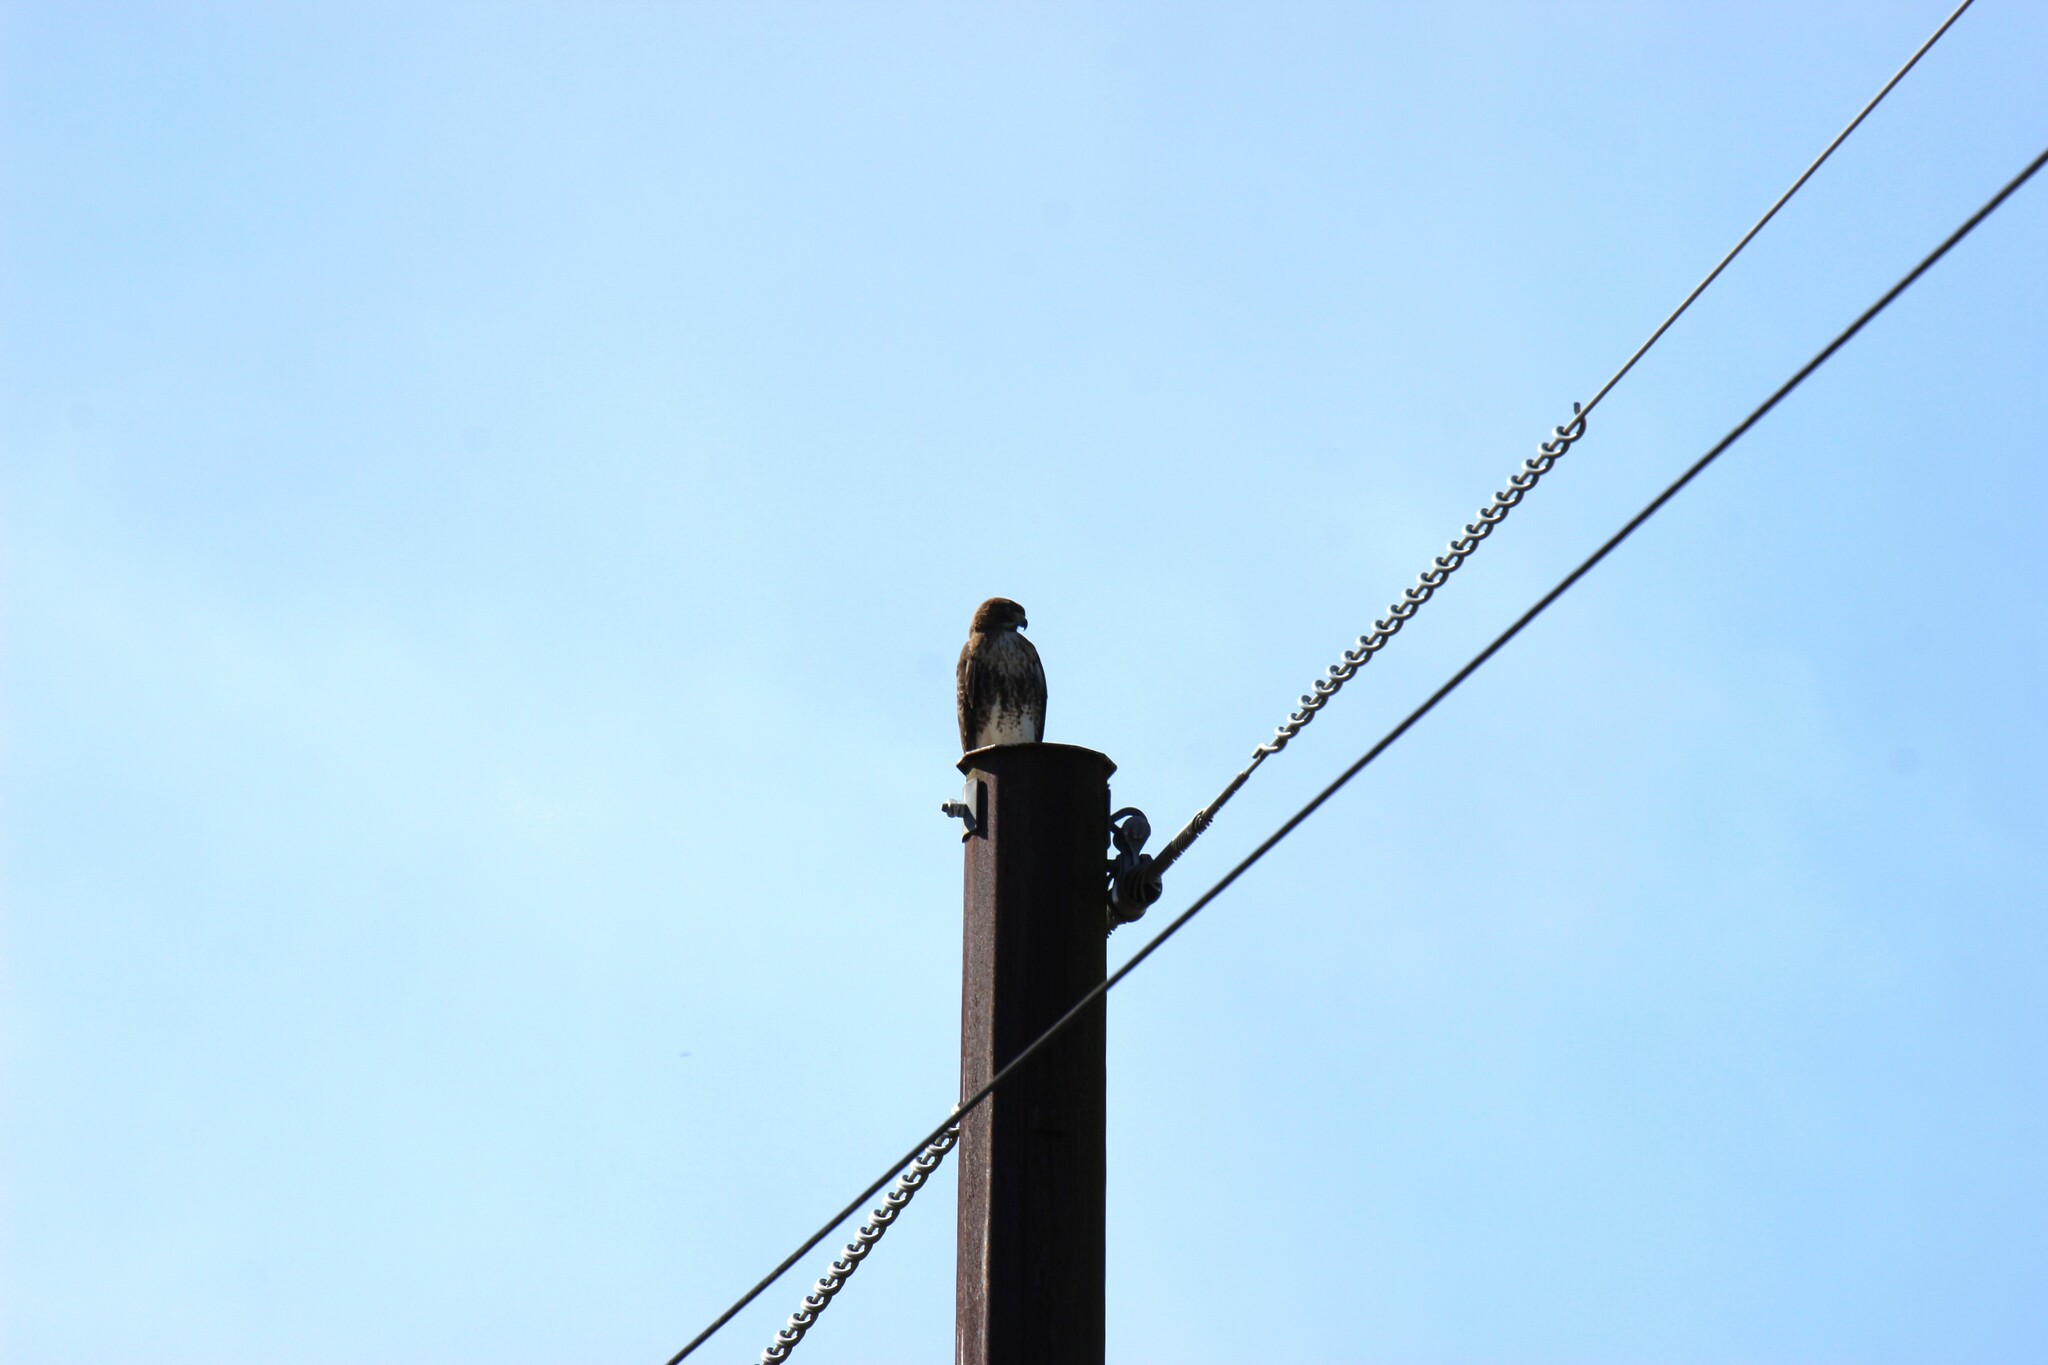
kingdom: Animalia
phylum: Chordata
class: Aves
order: Accipitriformes
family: Accipitridae
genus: Buteo
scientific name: Buteo jamaicensis
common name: Red-tailed hawk
